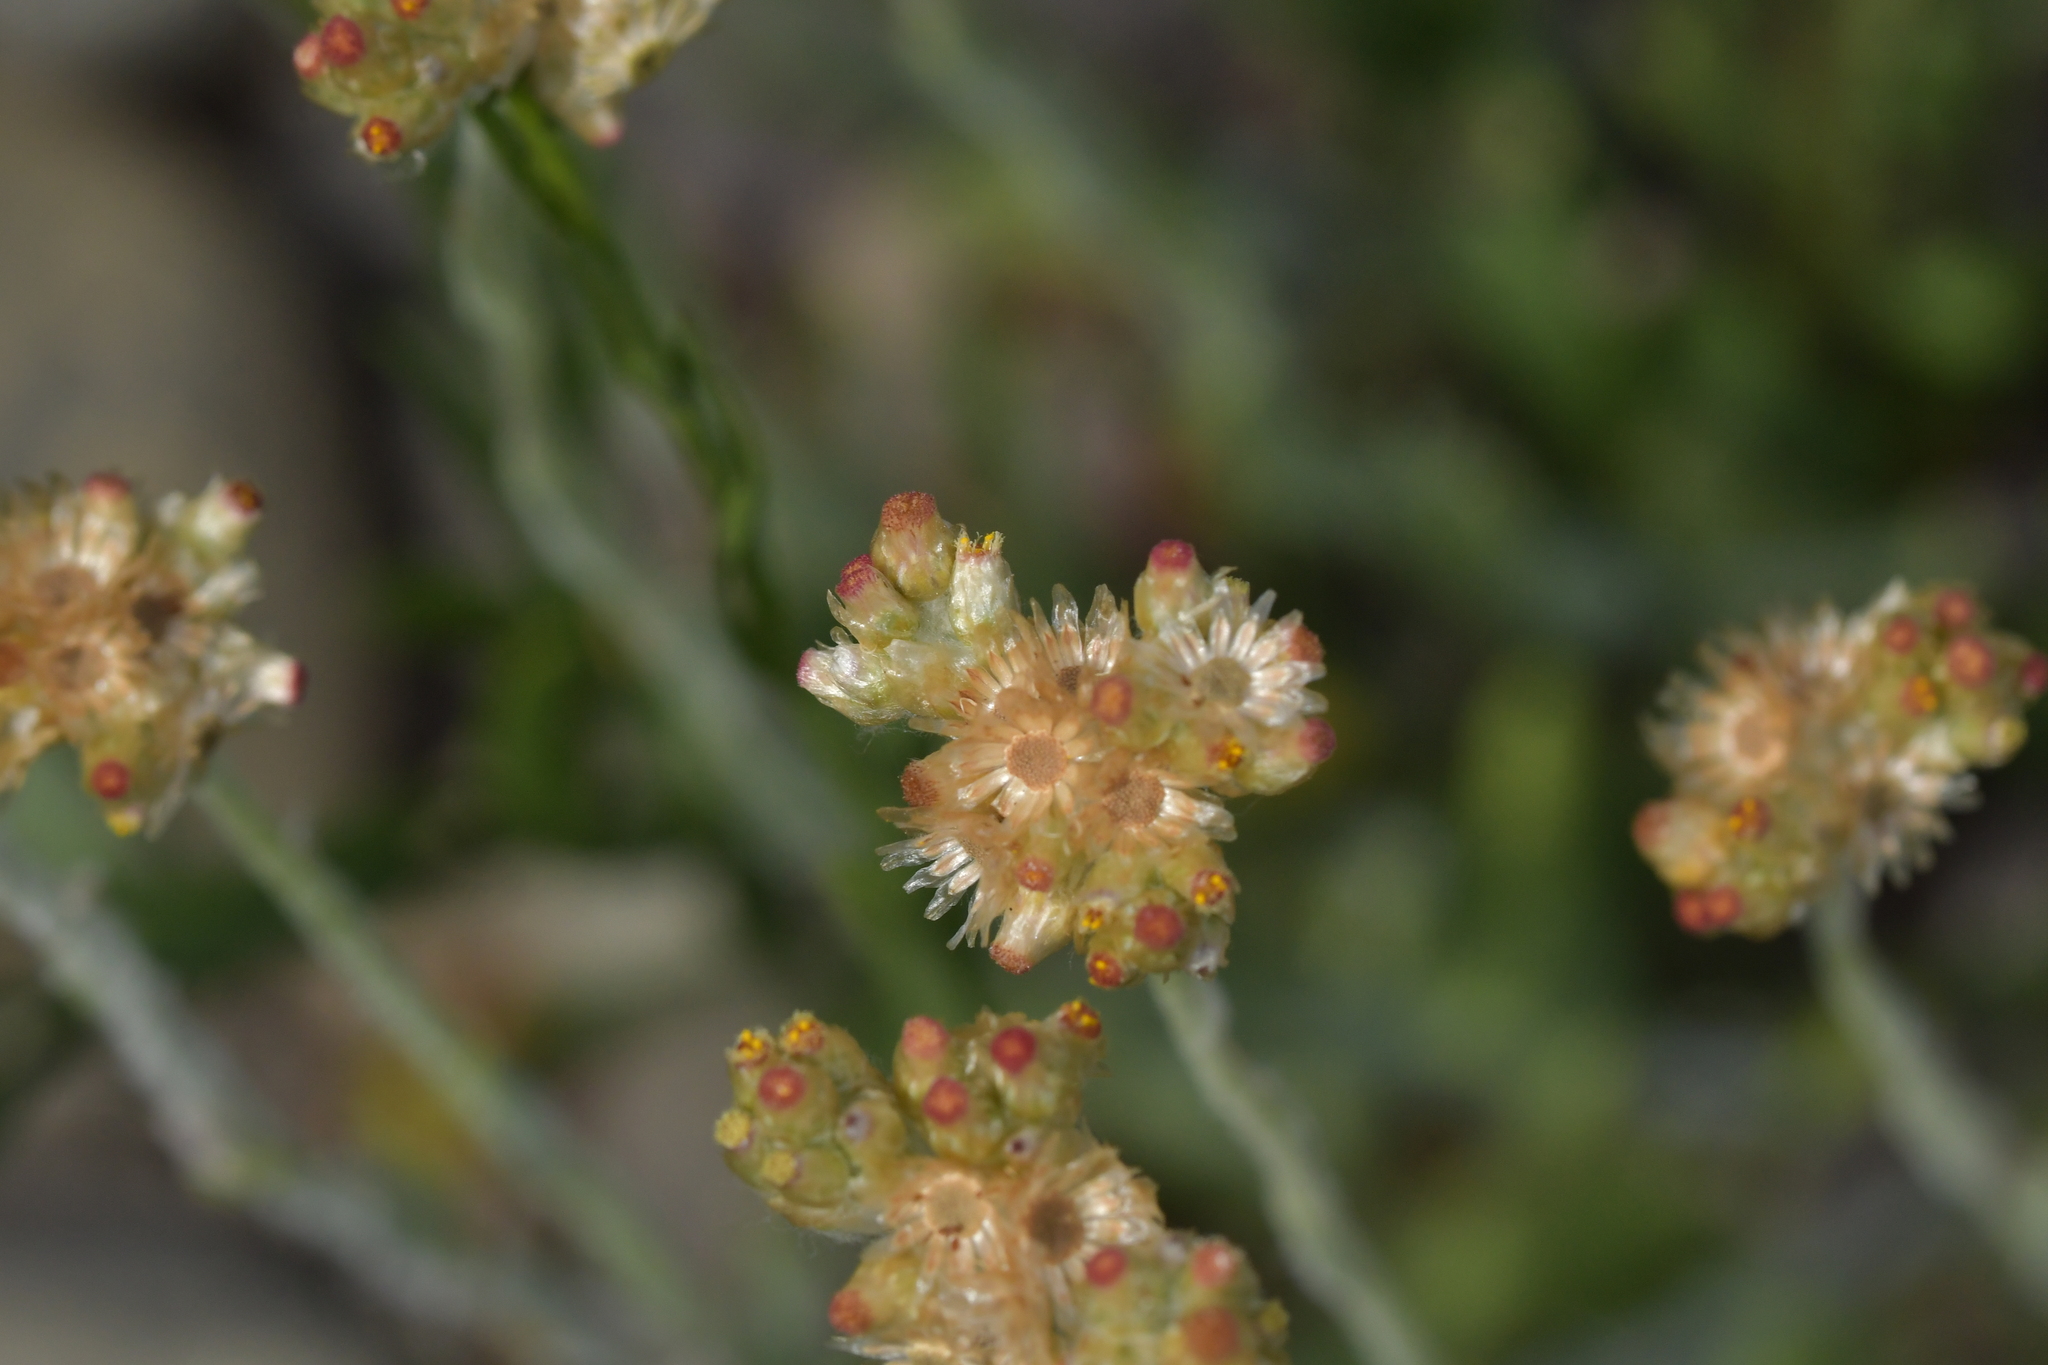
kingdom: Plantae
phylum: Tracheophyta
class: Magnoliopsida
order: Asterales
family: Asteraceae
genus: Helichrysum
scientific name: Helichrysum luteoalbum
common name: Daisy
